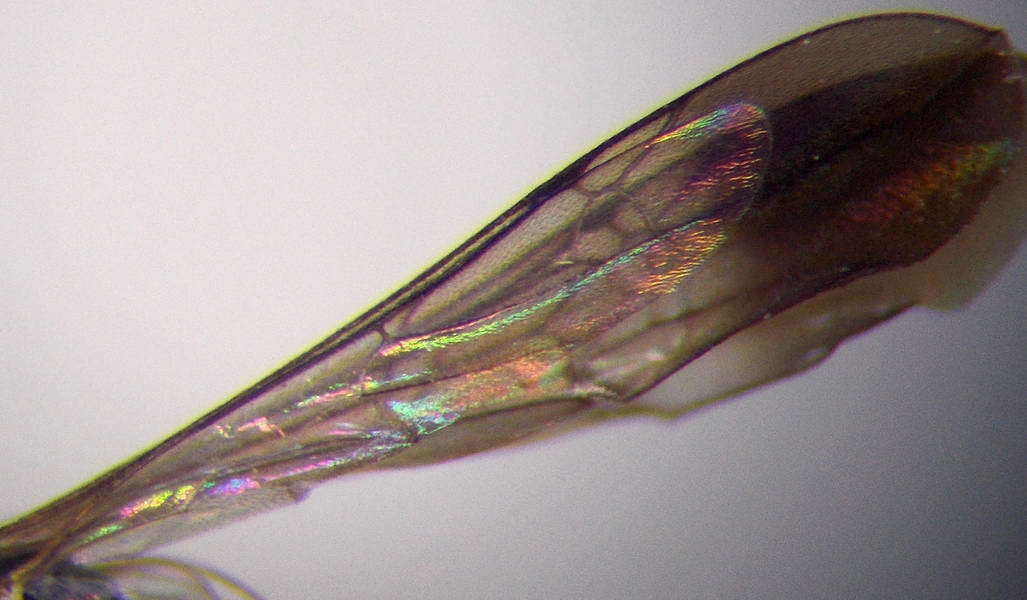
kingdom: Animalia
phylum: Arthropoda
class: Insecta
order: Hymenoptera
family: Pompilidae
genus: Microphadnus
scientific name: Microphadnus pumilus
